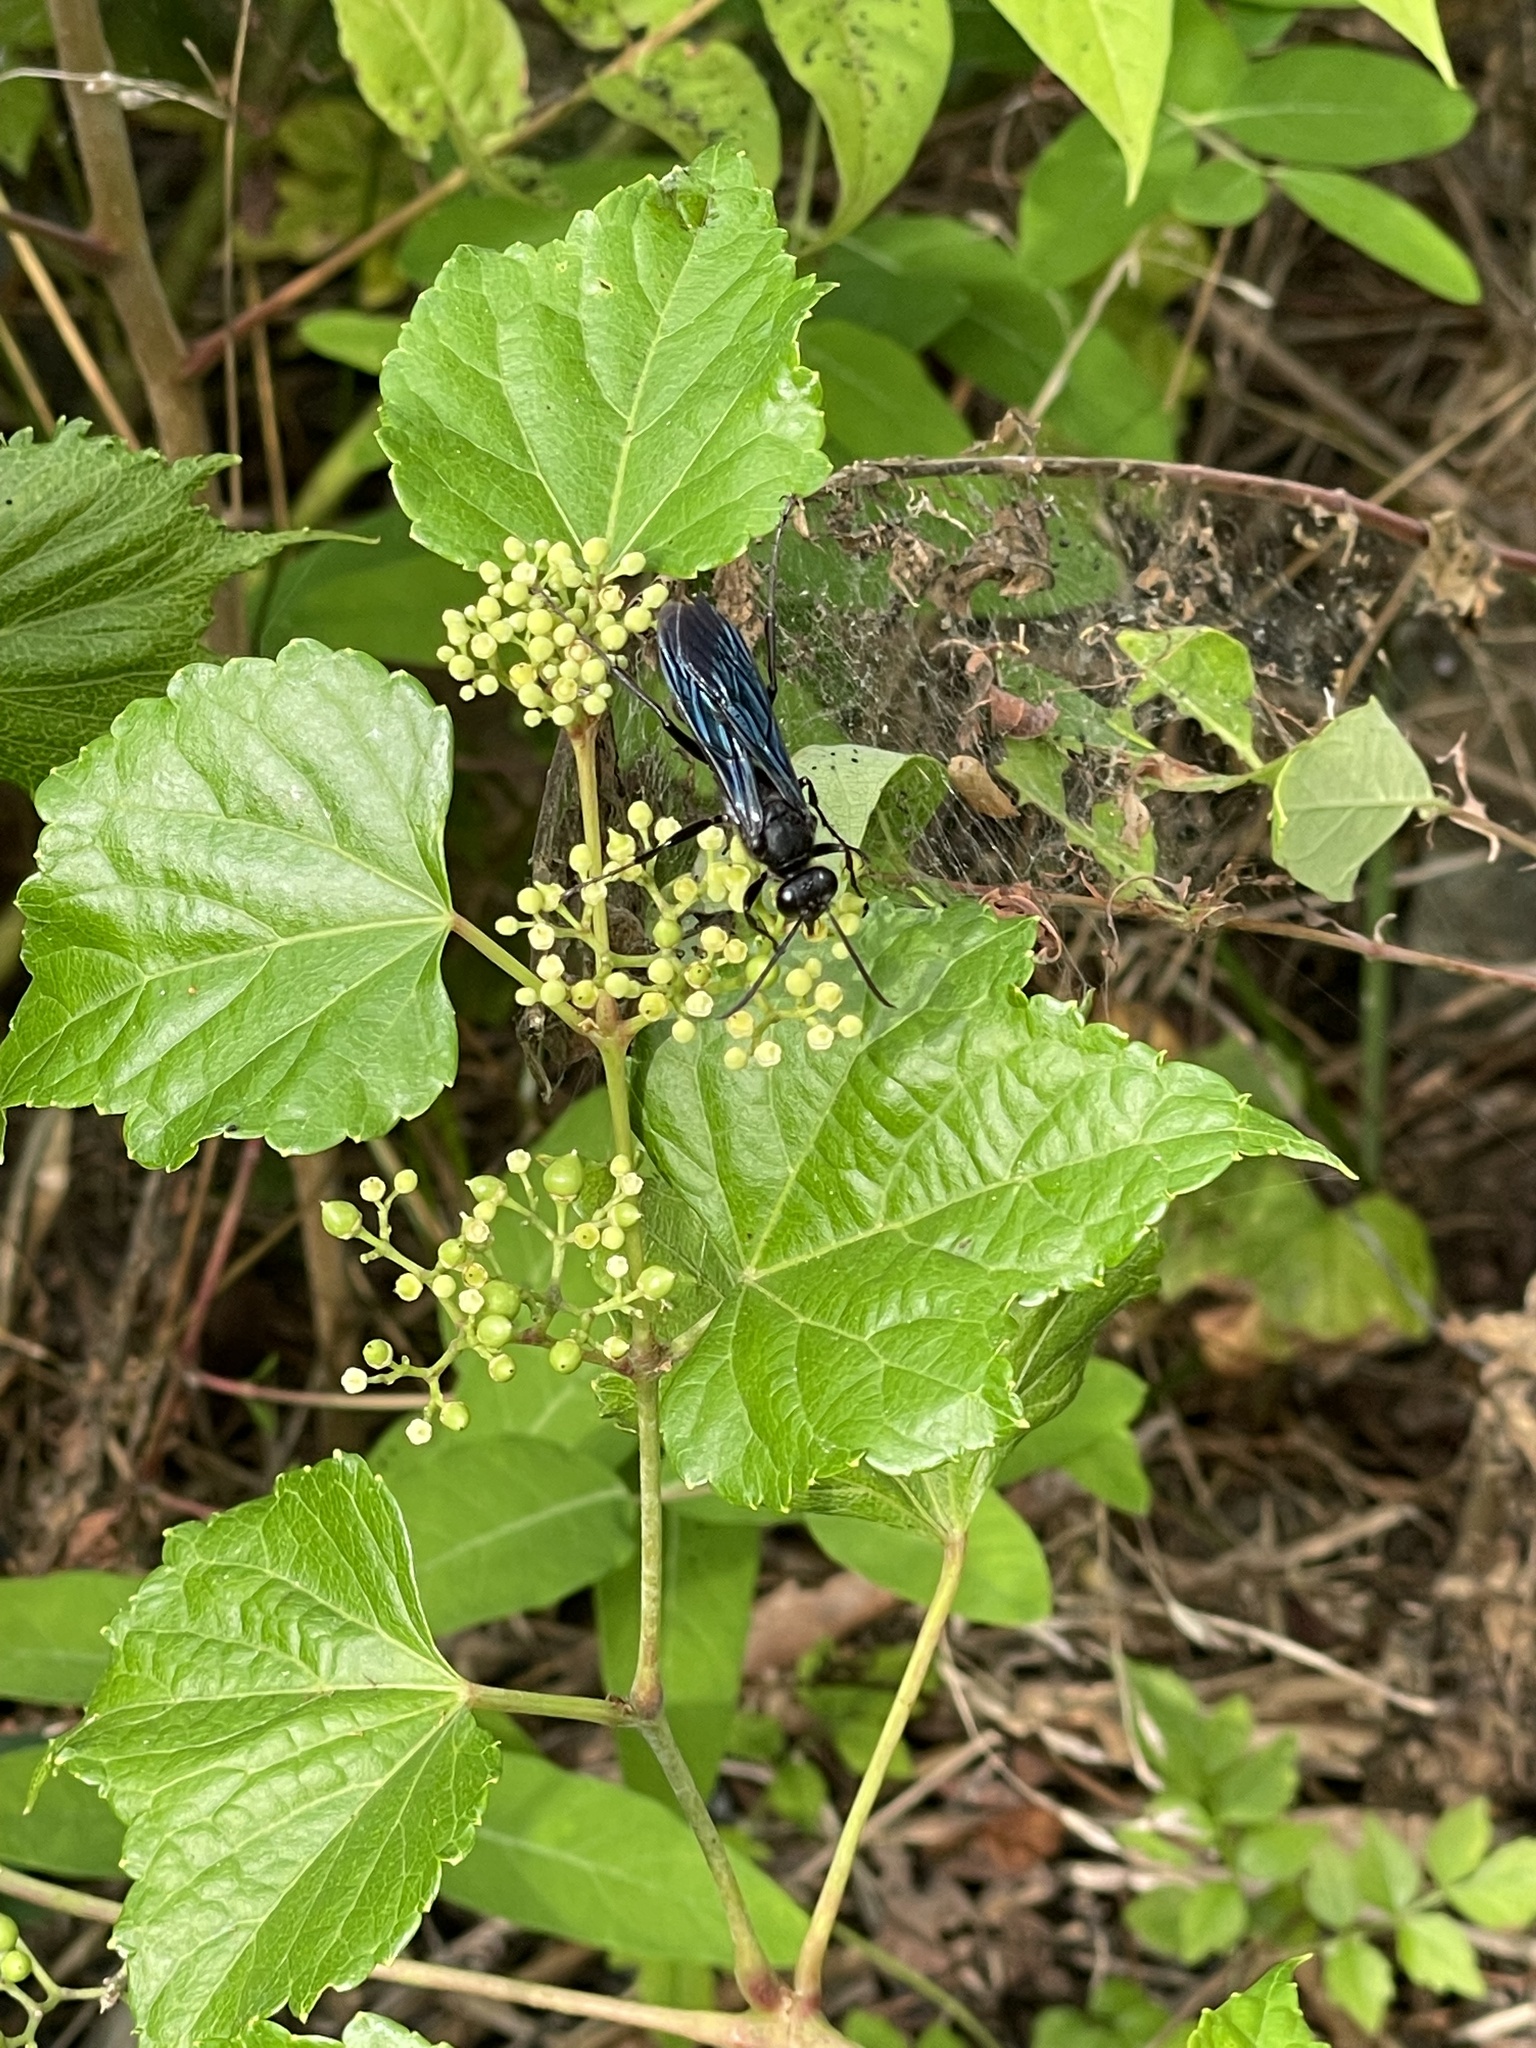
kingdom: Animalia
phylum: Arthropoda
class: Insecta
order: Hymenoptera
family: Sphecidae
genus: Sphex
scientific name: Sphex pensylvanicus
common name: Great black digger wasp
